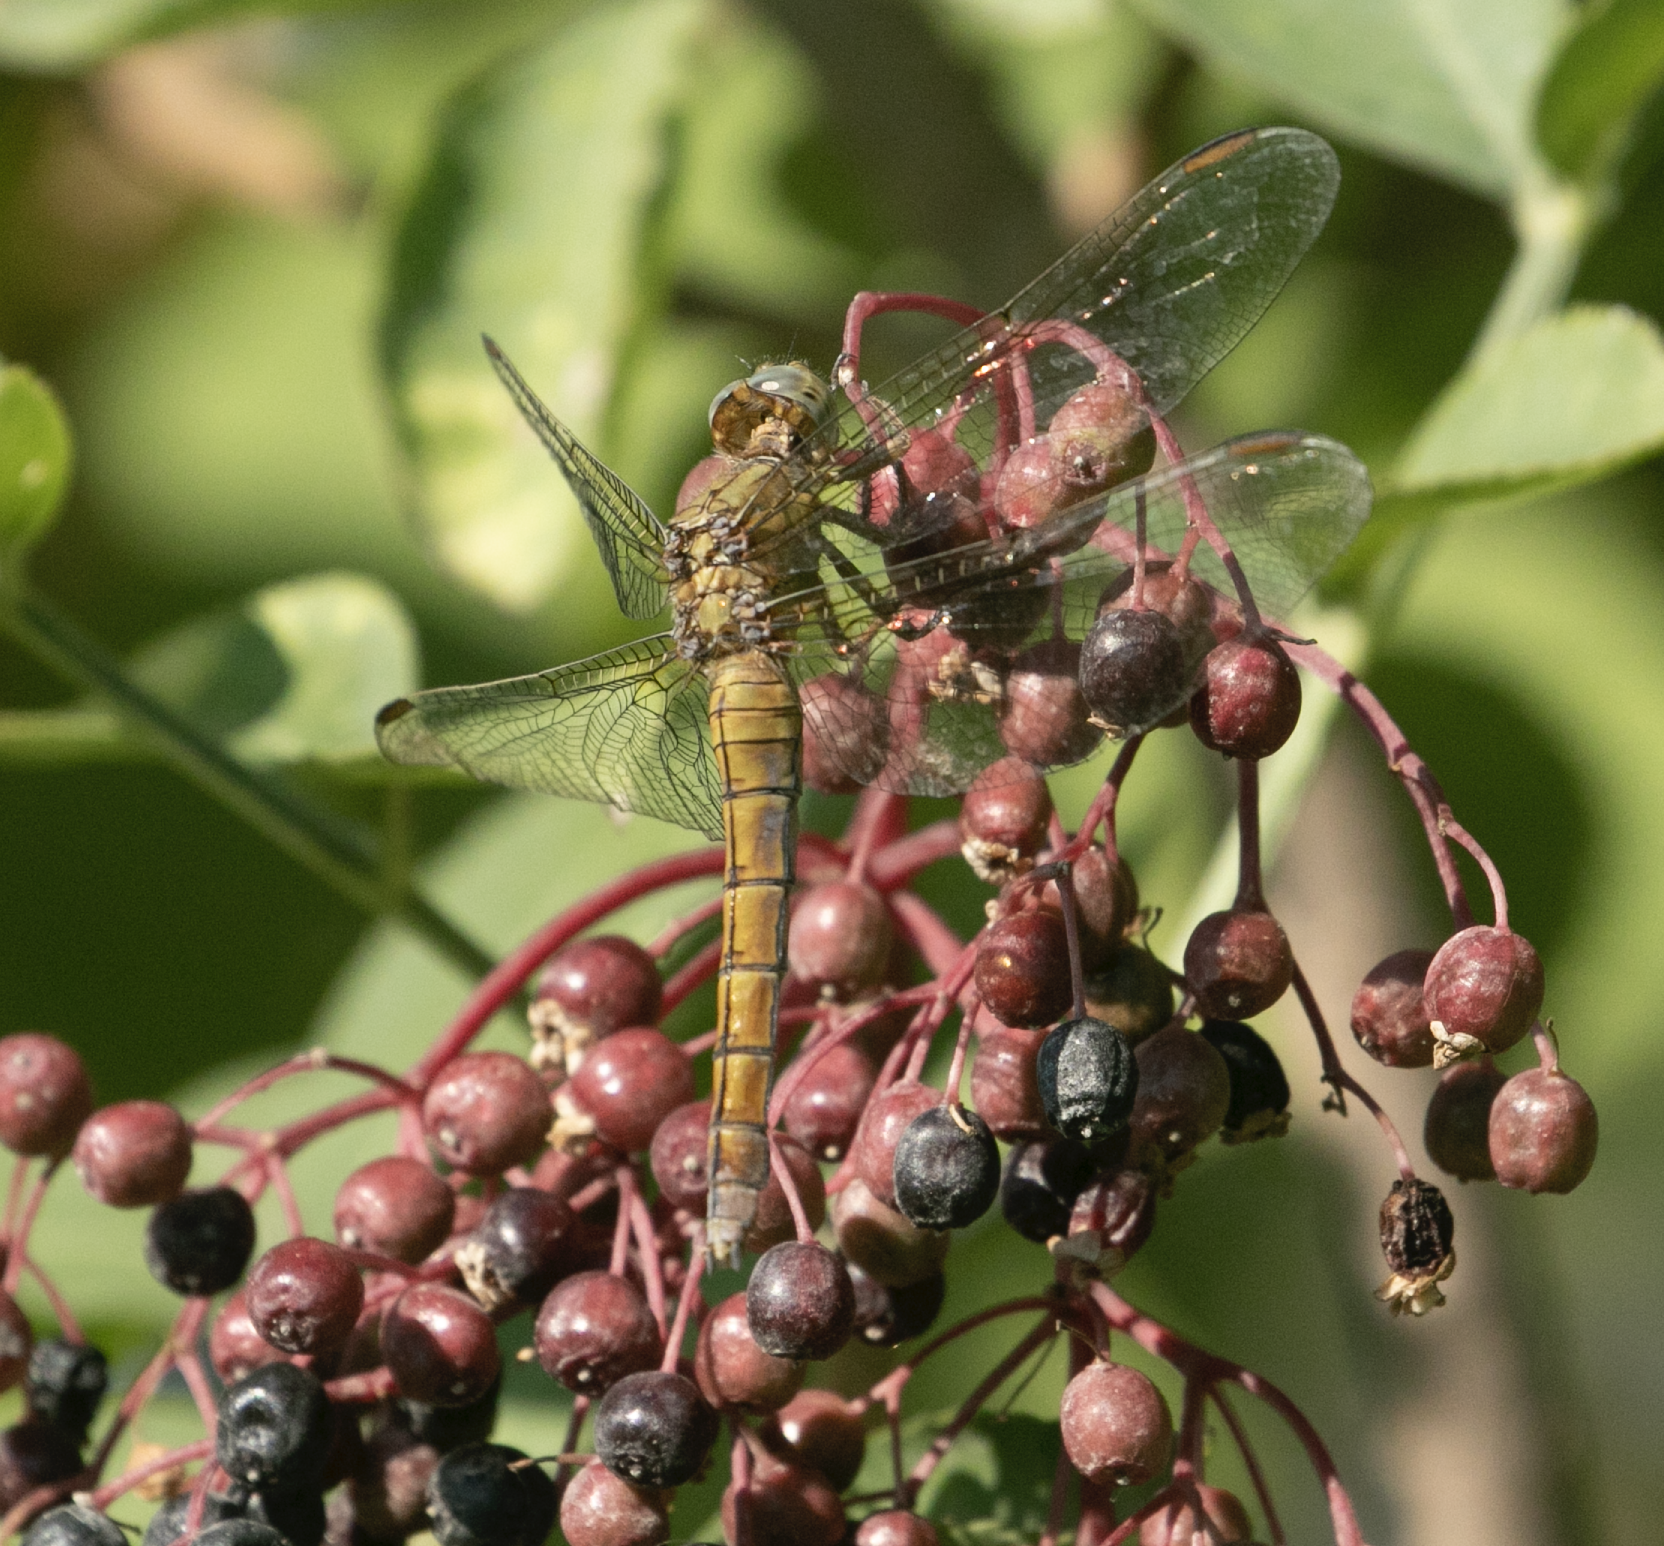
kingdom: Animalia
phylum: Arthropoda
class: Insecta
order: Odonata
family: Libellulidae
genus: Orthetrum
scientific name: Orthetrum coerulescens
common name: Keeled skimmer
